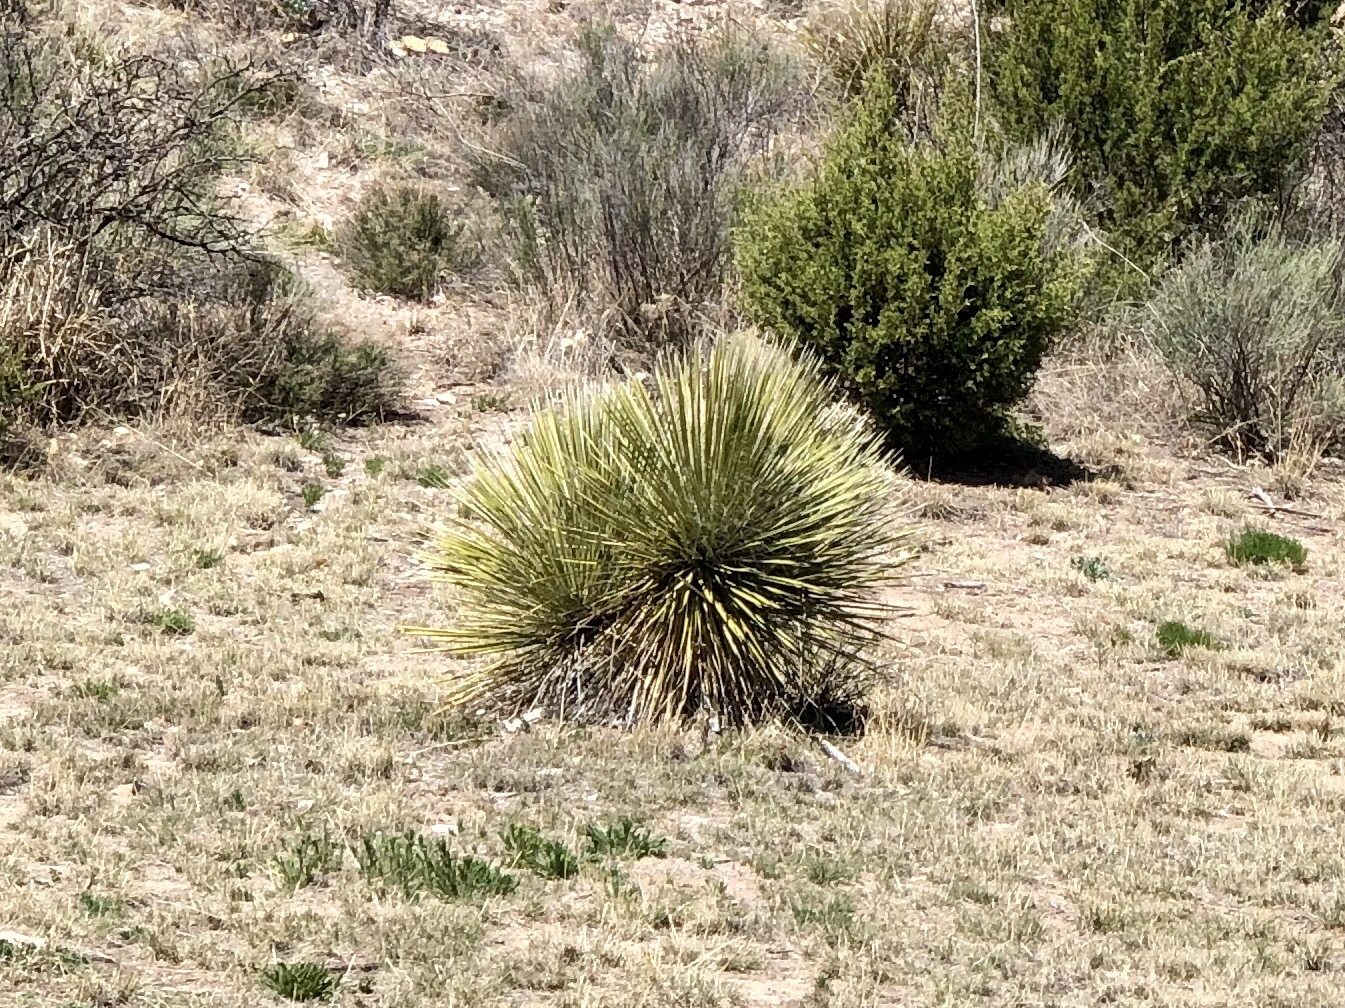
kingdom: Plantae
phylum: Tracheophyta
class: Liliopsida
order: Asparagales
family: Asparagaceae
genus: Yucca
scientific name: Yucca elata
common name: Palmella
